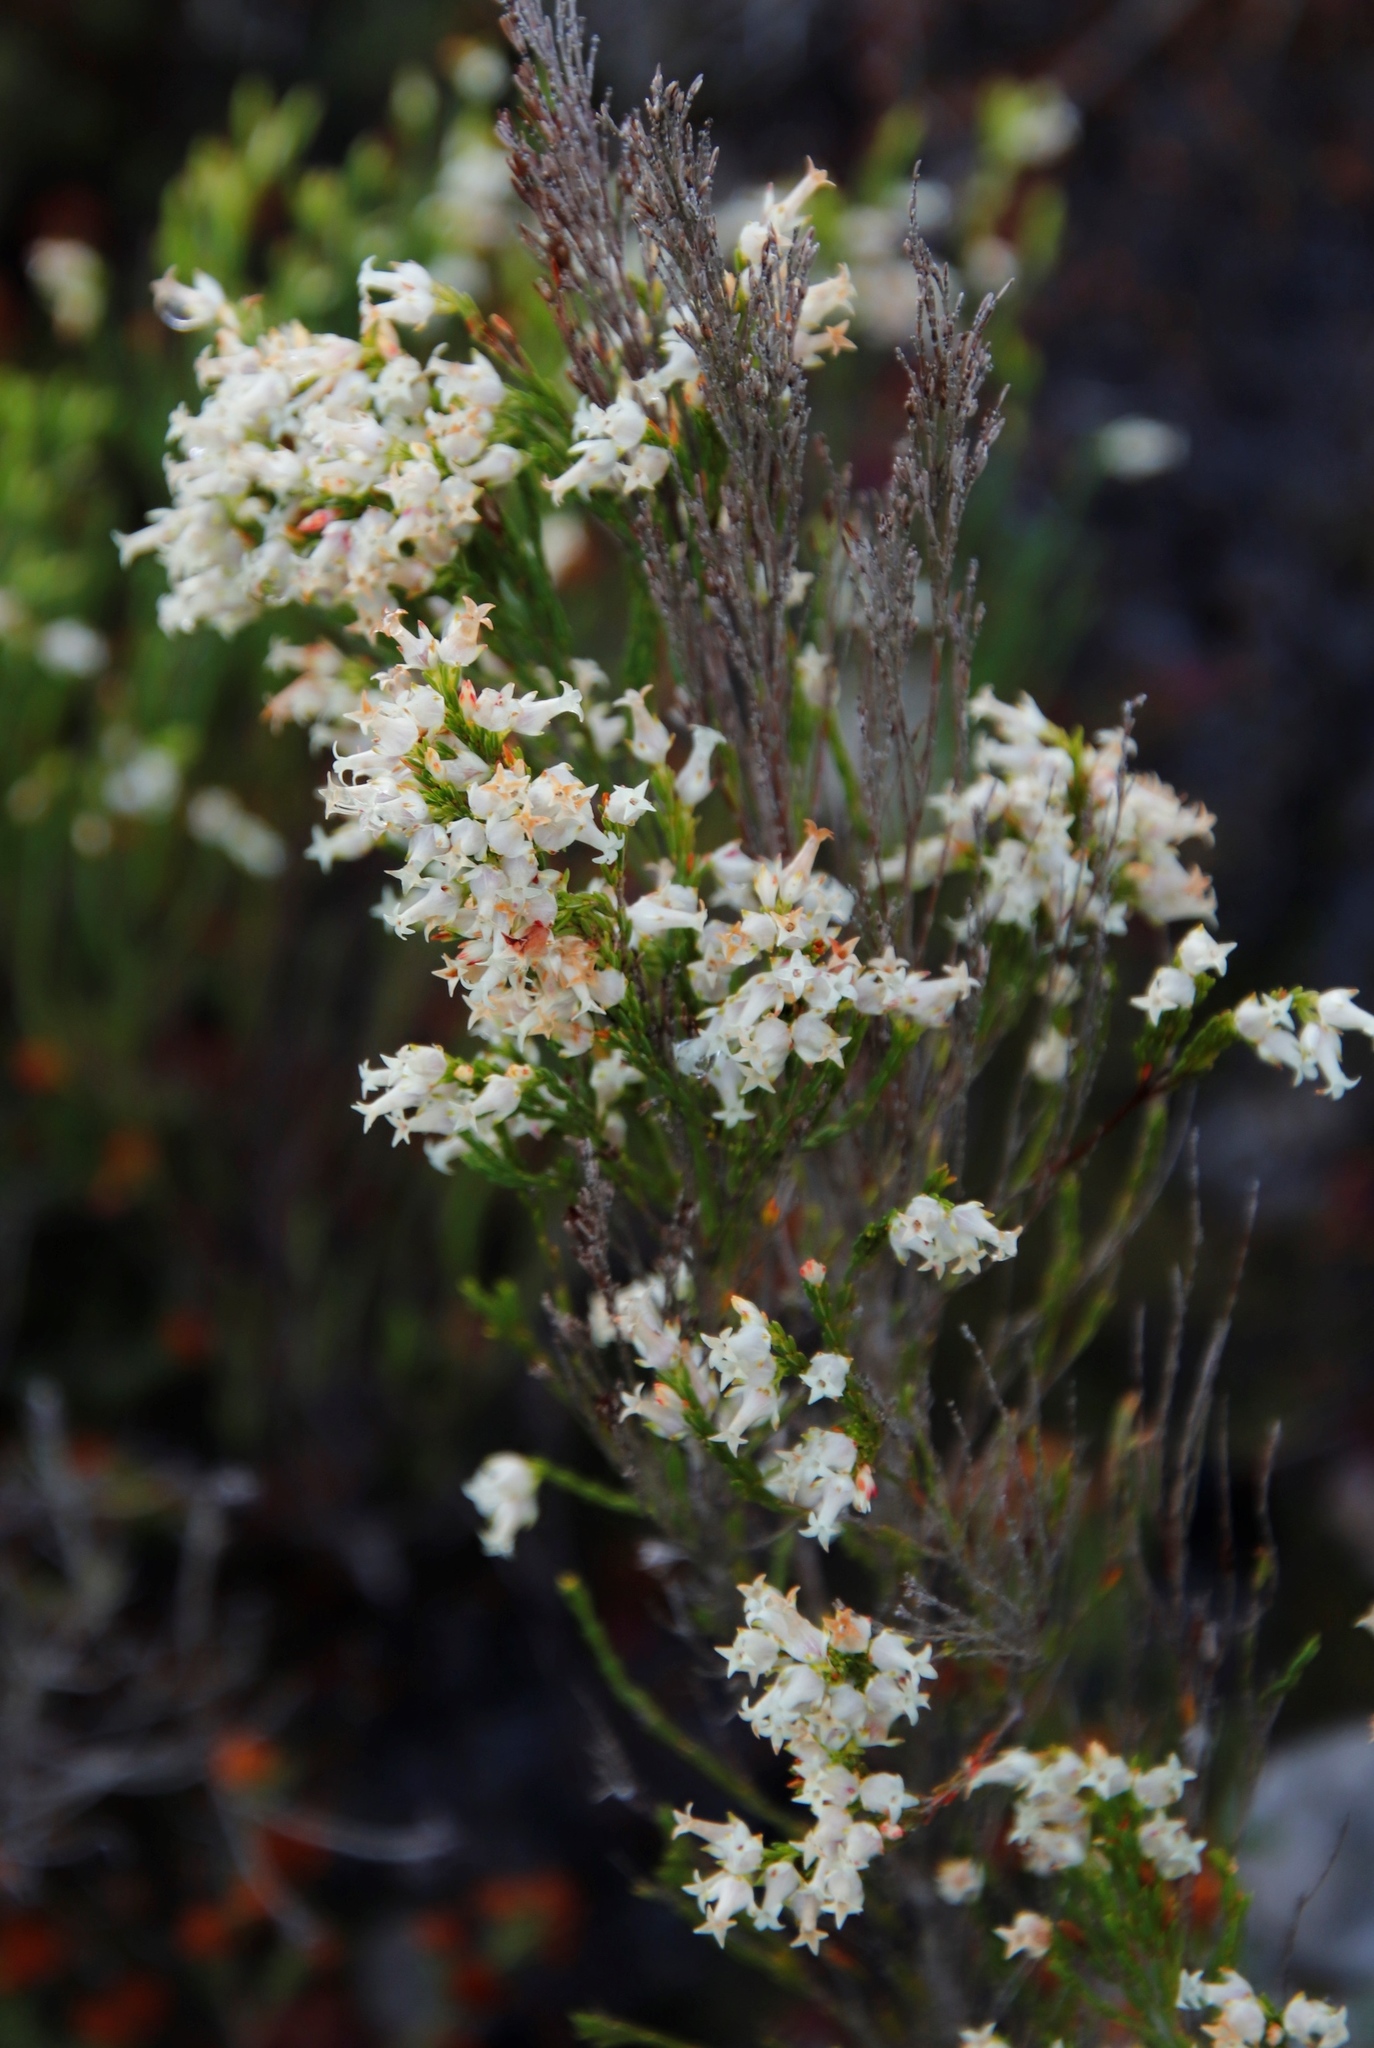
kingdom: Plantae
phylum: Tracheophyta
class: Magnoliopsida
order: Ericales
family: Ericaceae
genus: Erica
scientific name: Erica lutea
